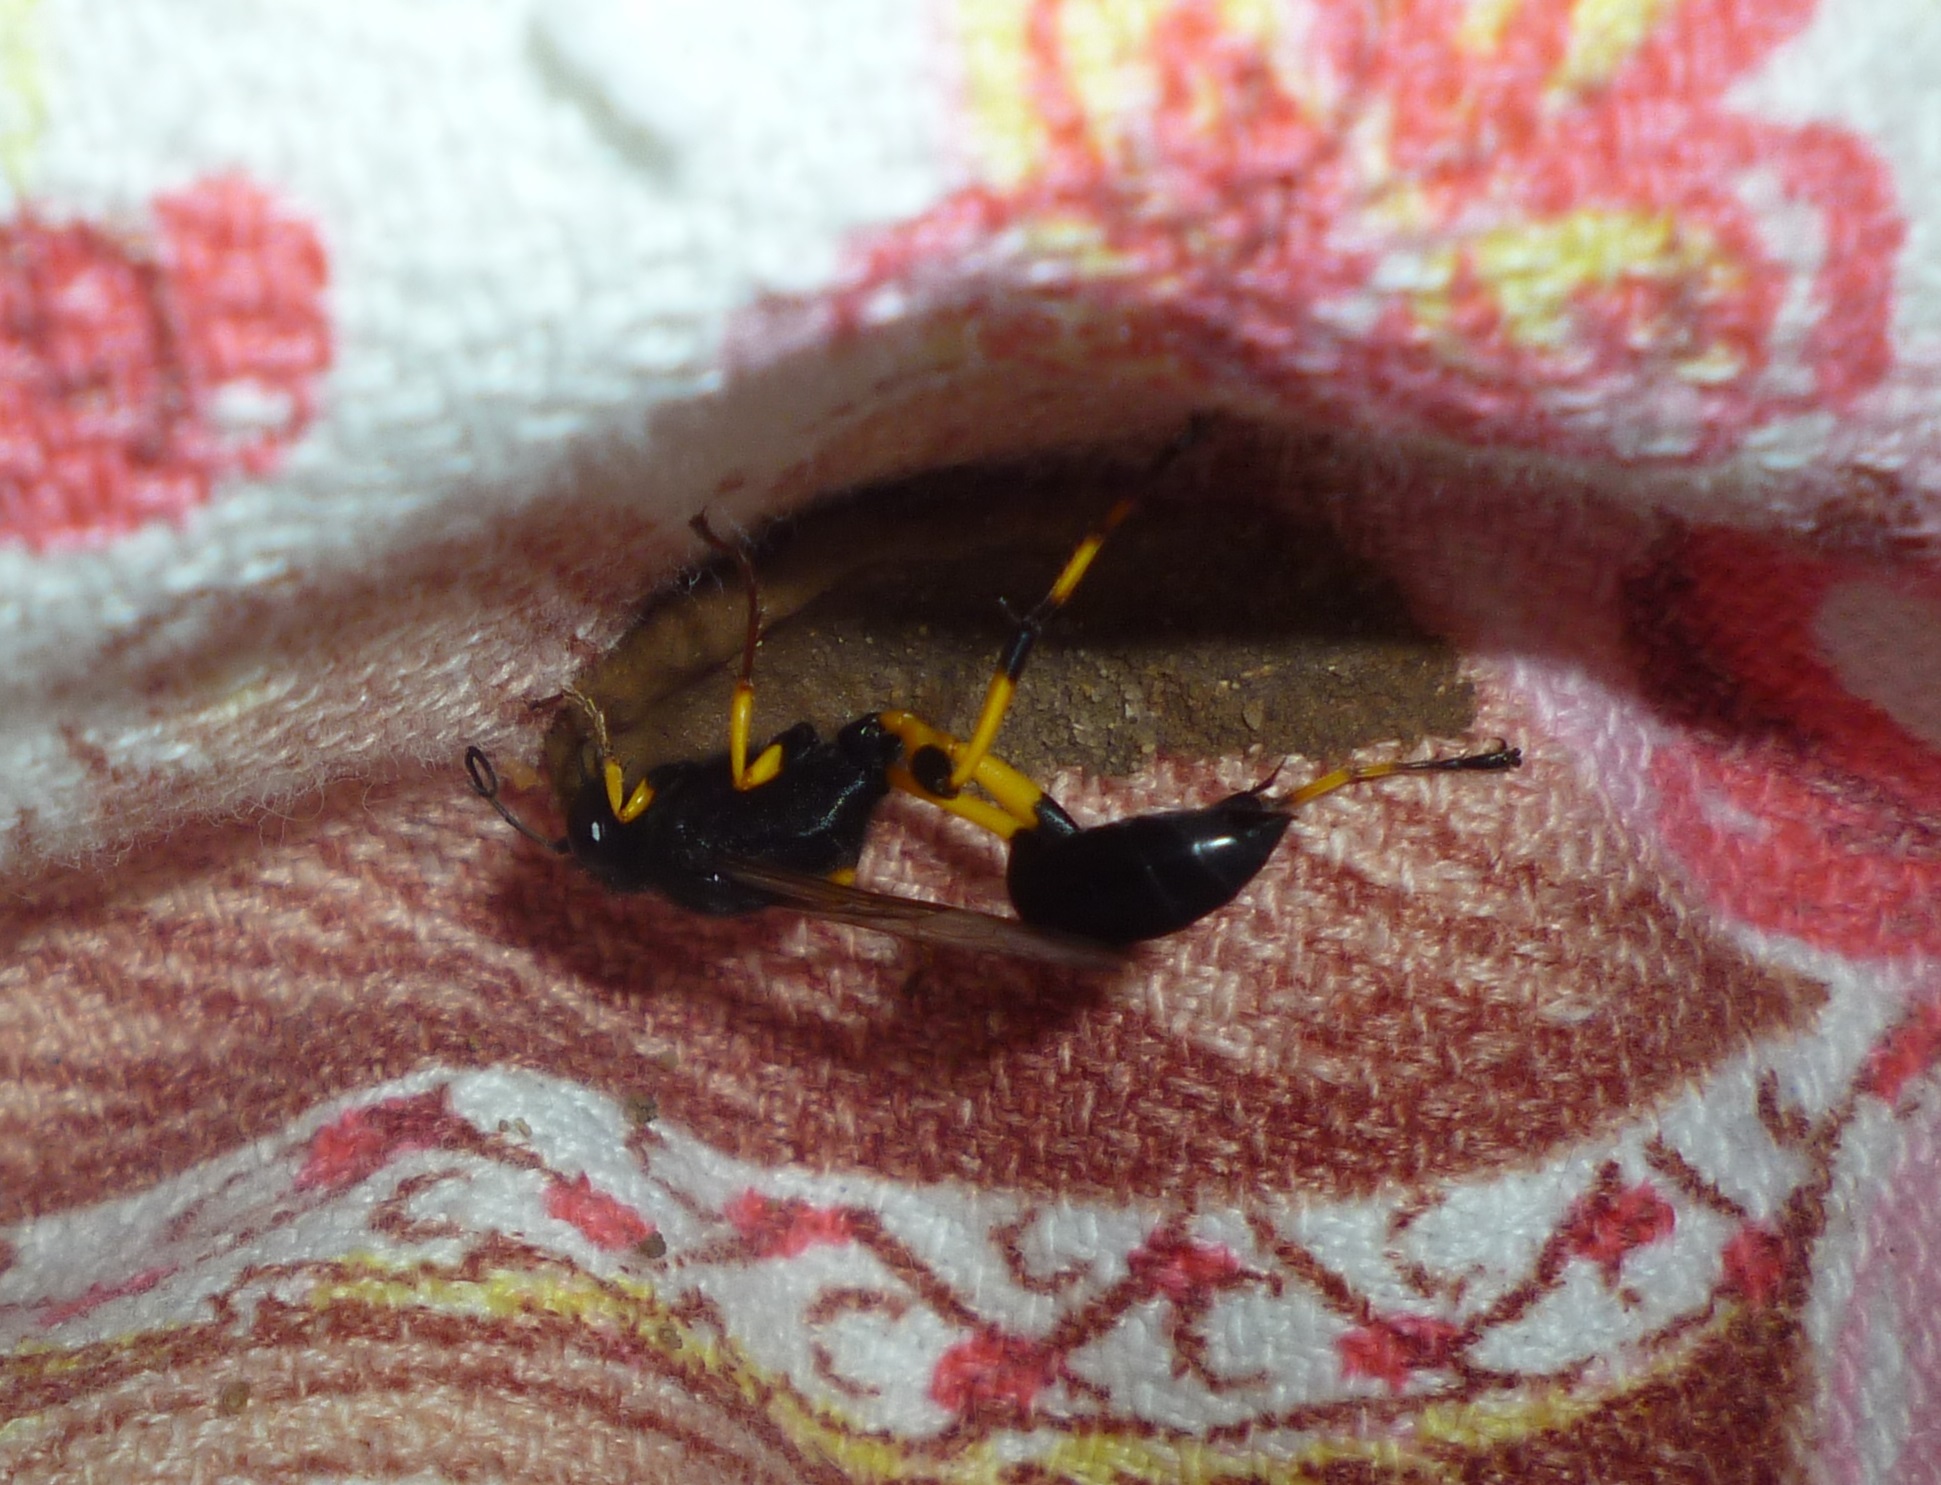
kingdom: Animalia
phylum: Arthropoda
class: Insecta
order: Hymenoptera
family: Sphecidae
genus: Sceliphron
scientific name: Sceliphron spirifex
